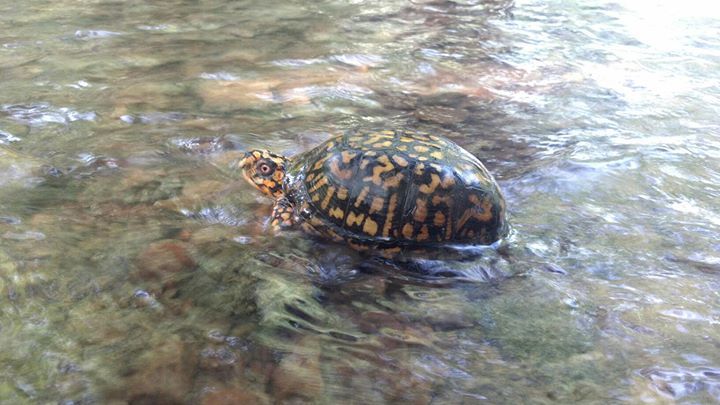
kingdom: Animalia
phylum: Chordata
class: Testudines
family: Emydidae
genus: Terrapene
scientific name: Terrapene carolina
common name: Common box turtle
